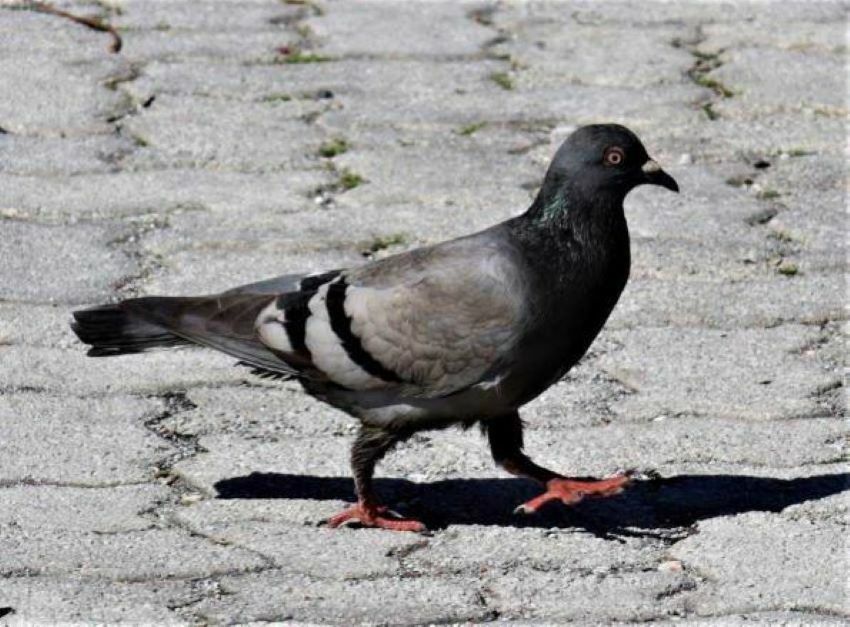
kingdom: Animalia
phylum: Chordata
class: Aves
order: Columbiformes
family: Columbidae
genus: Columba
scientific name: Columba livia
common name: Rock pigeon
